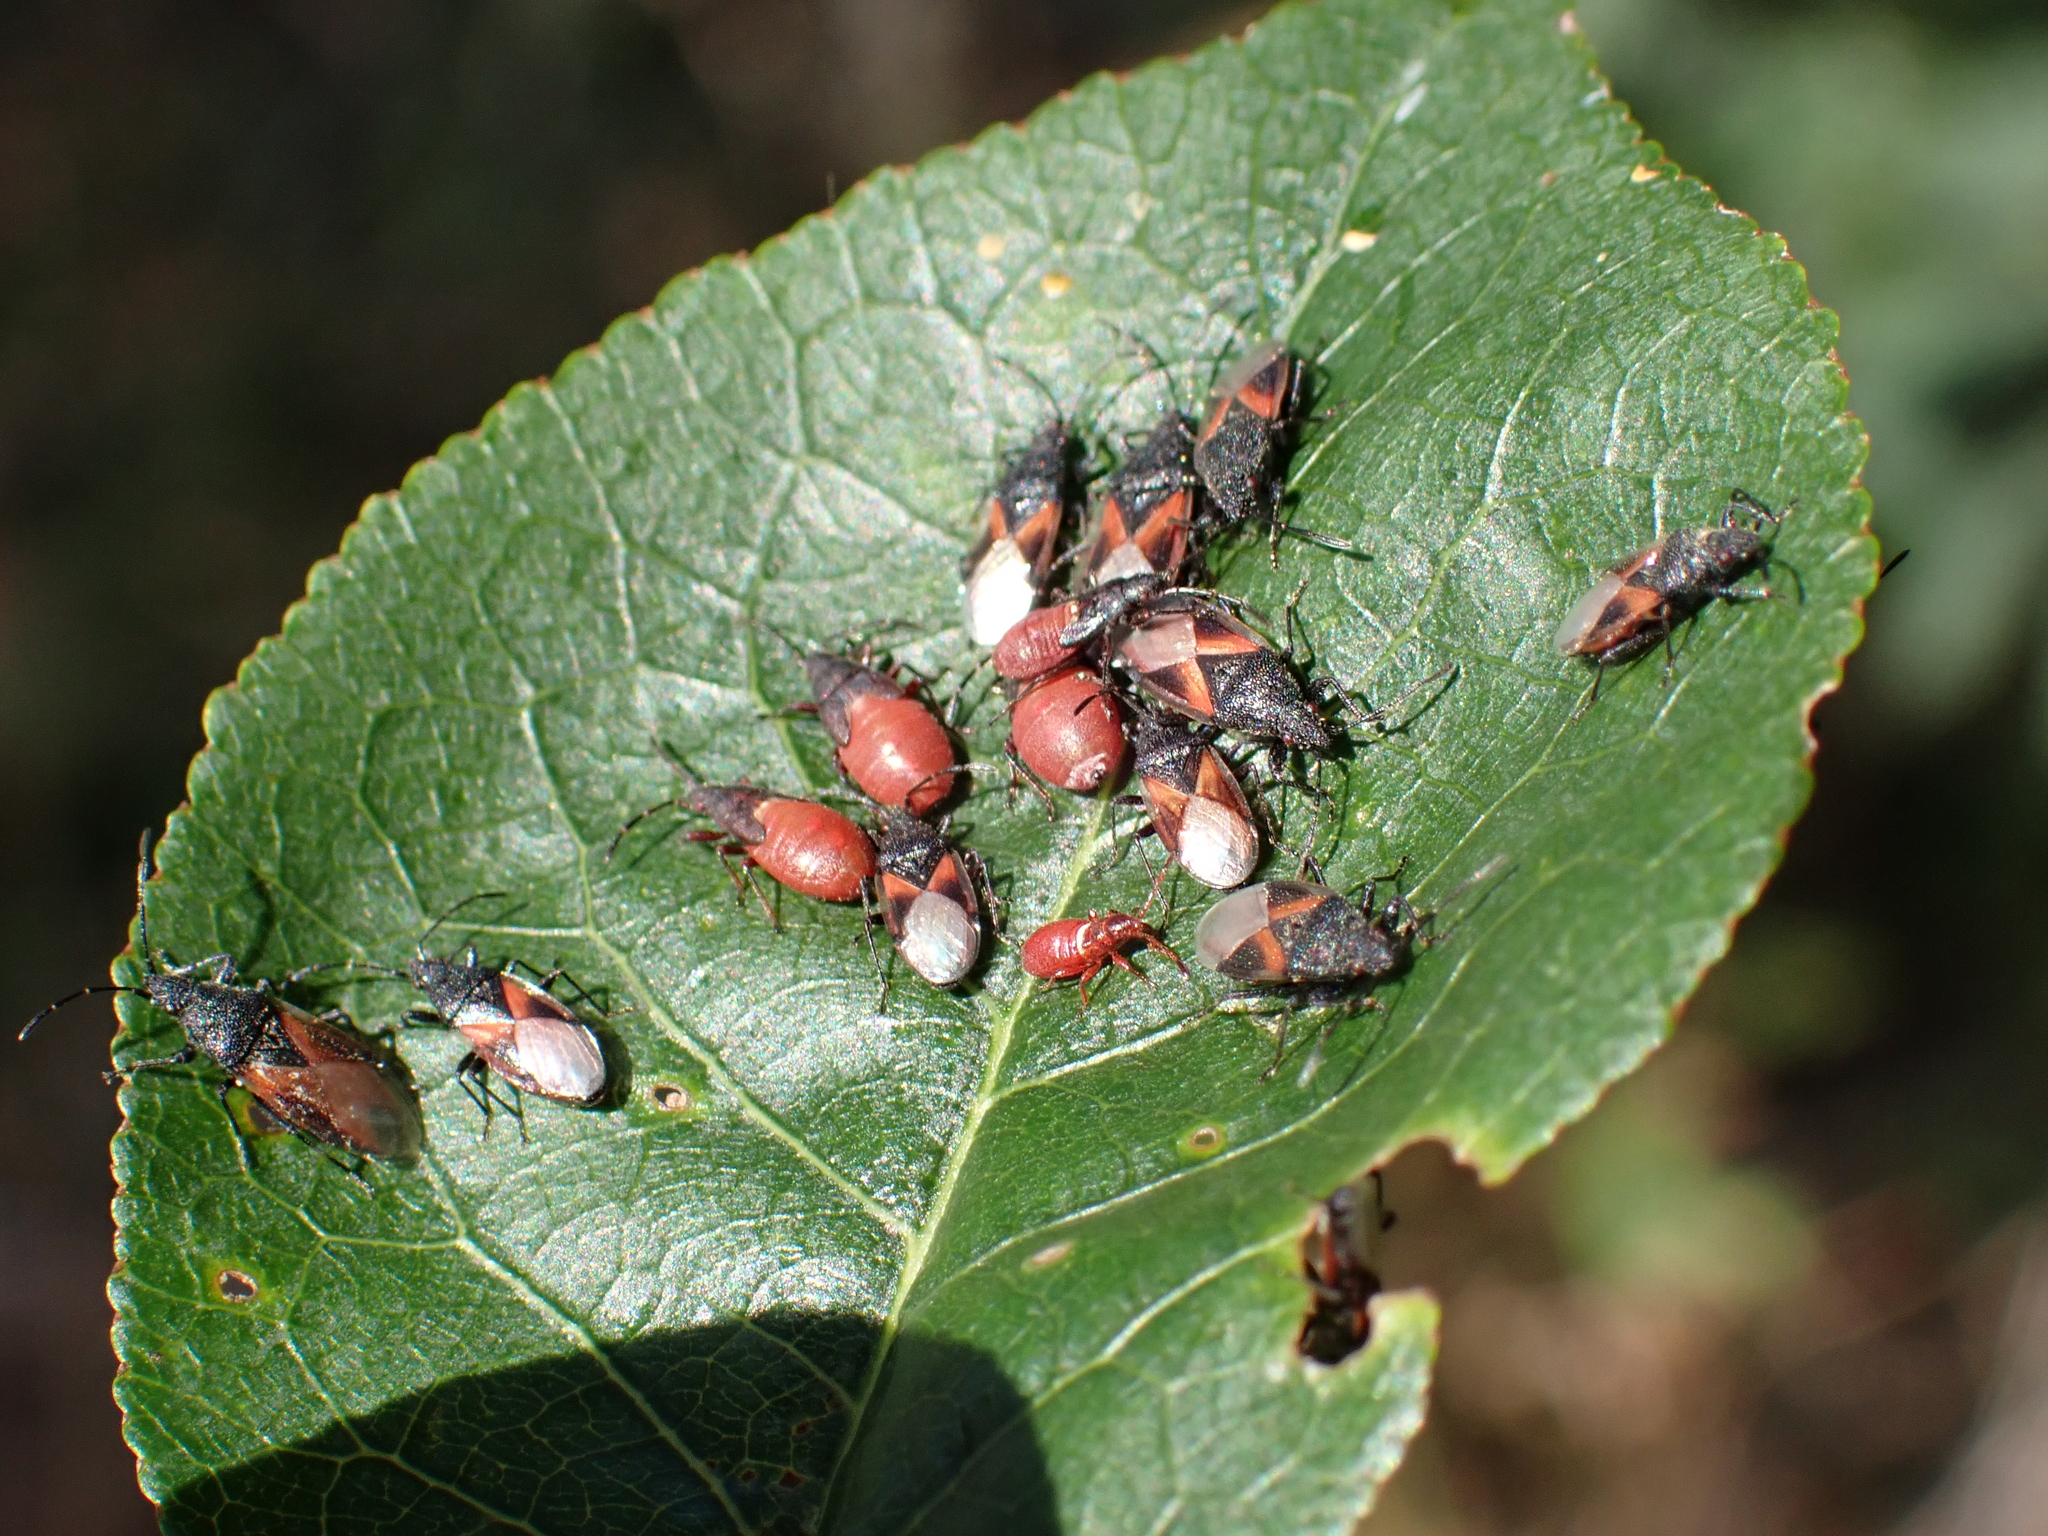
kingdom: Animalia
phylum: Arthropoda
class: Insecta
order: Hemiptera
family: Oxycarenidae
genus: Oxycarenus
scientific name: Oxycarenus lavaterae
